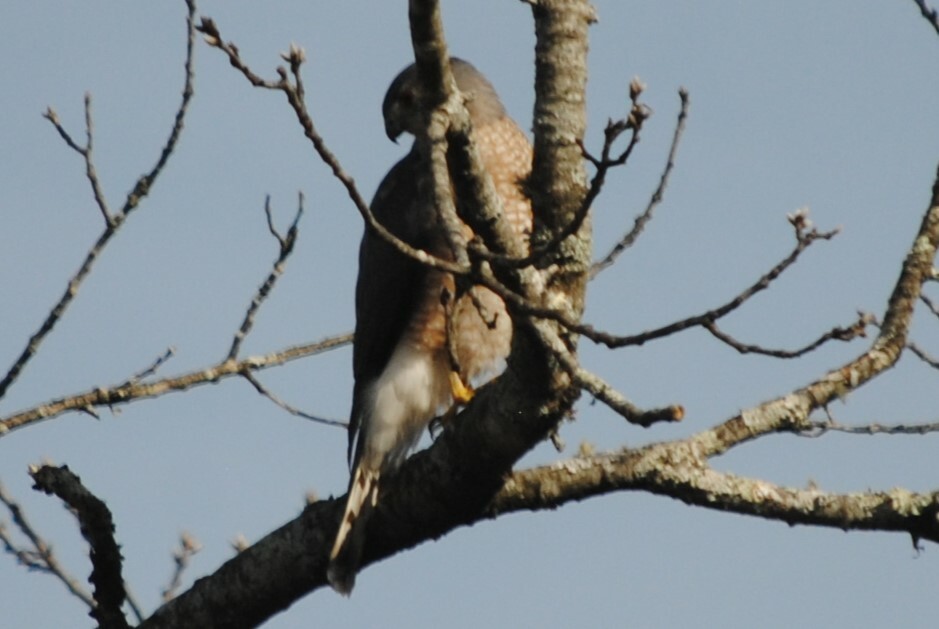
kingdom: Animalia
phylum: Chordata
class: Aves
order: Accipitriformes
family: Accipitridae
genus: Accipiter
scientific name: Accipiter cooperii
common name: Cooper's hawk
